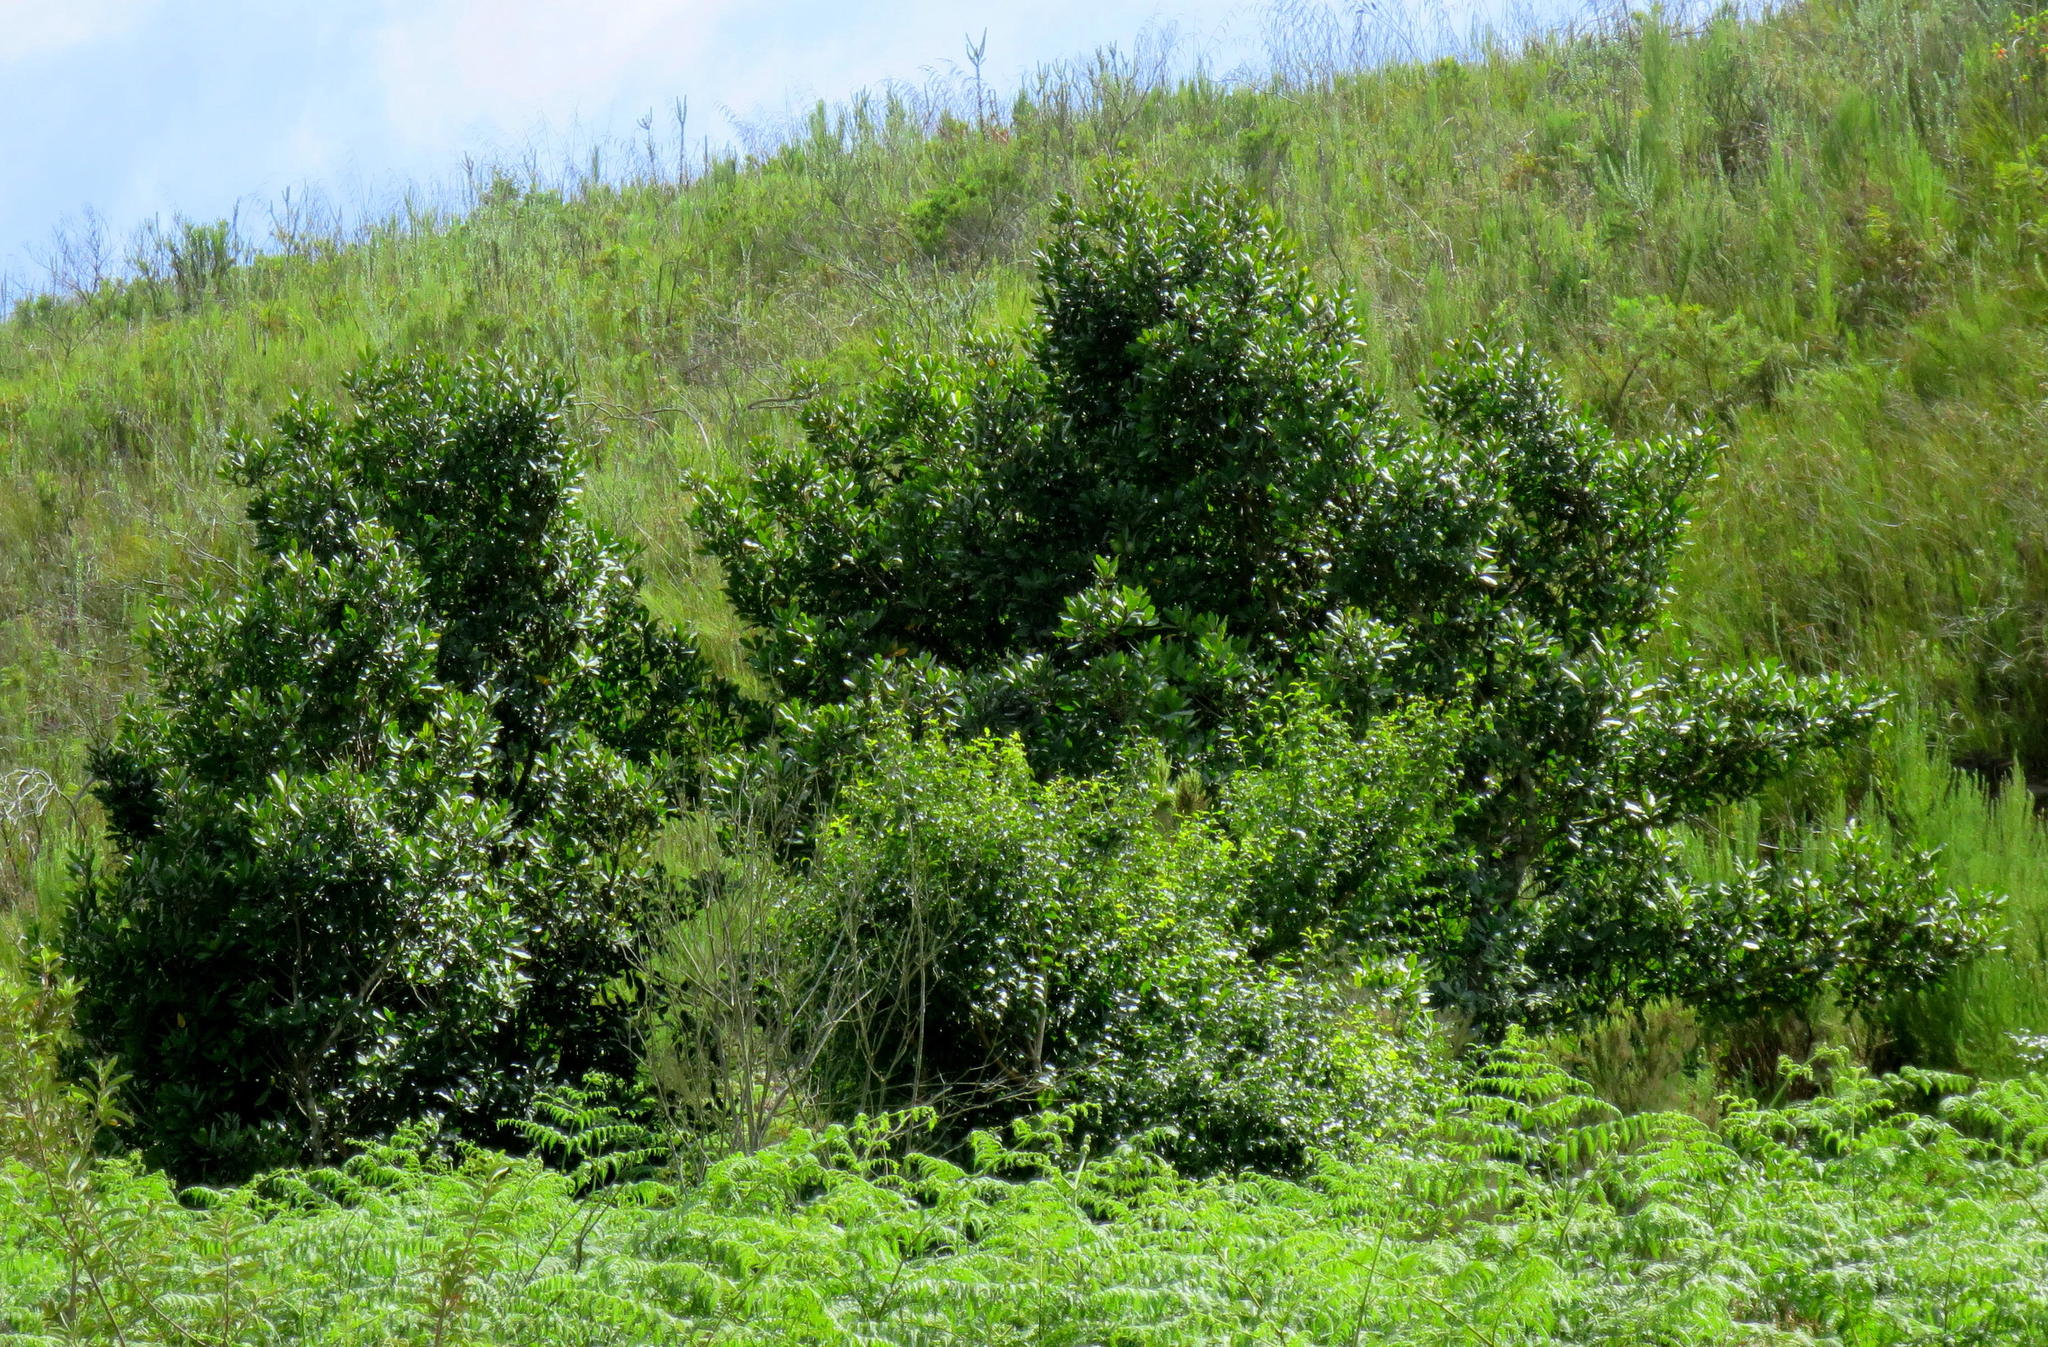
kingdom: Plantae
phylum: Tracheophyta
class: Magnoliopsida
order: Ericales
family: Primulaceae
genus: Myrsine
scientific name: Myrsine melanophloeos
